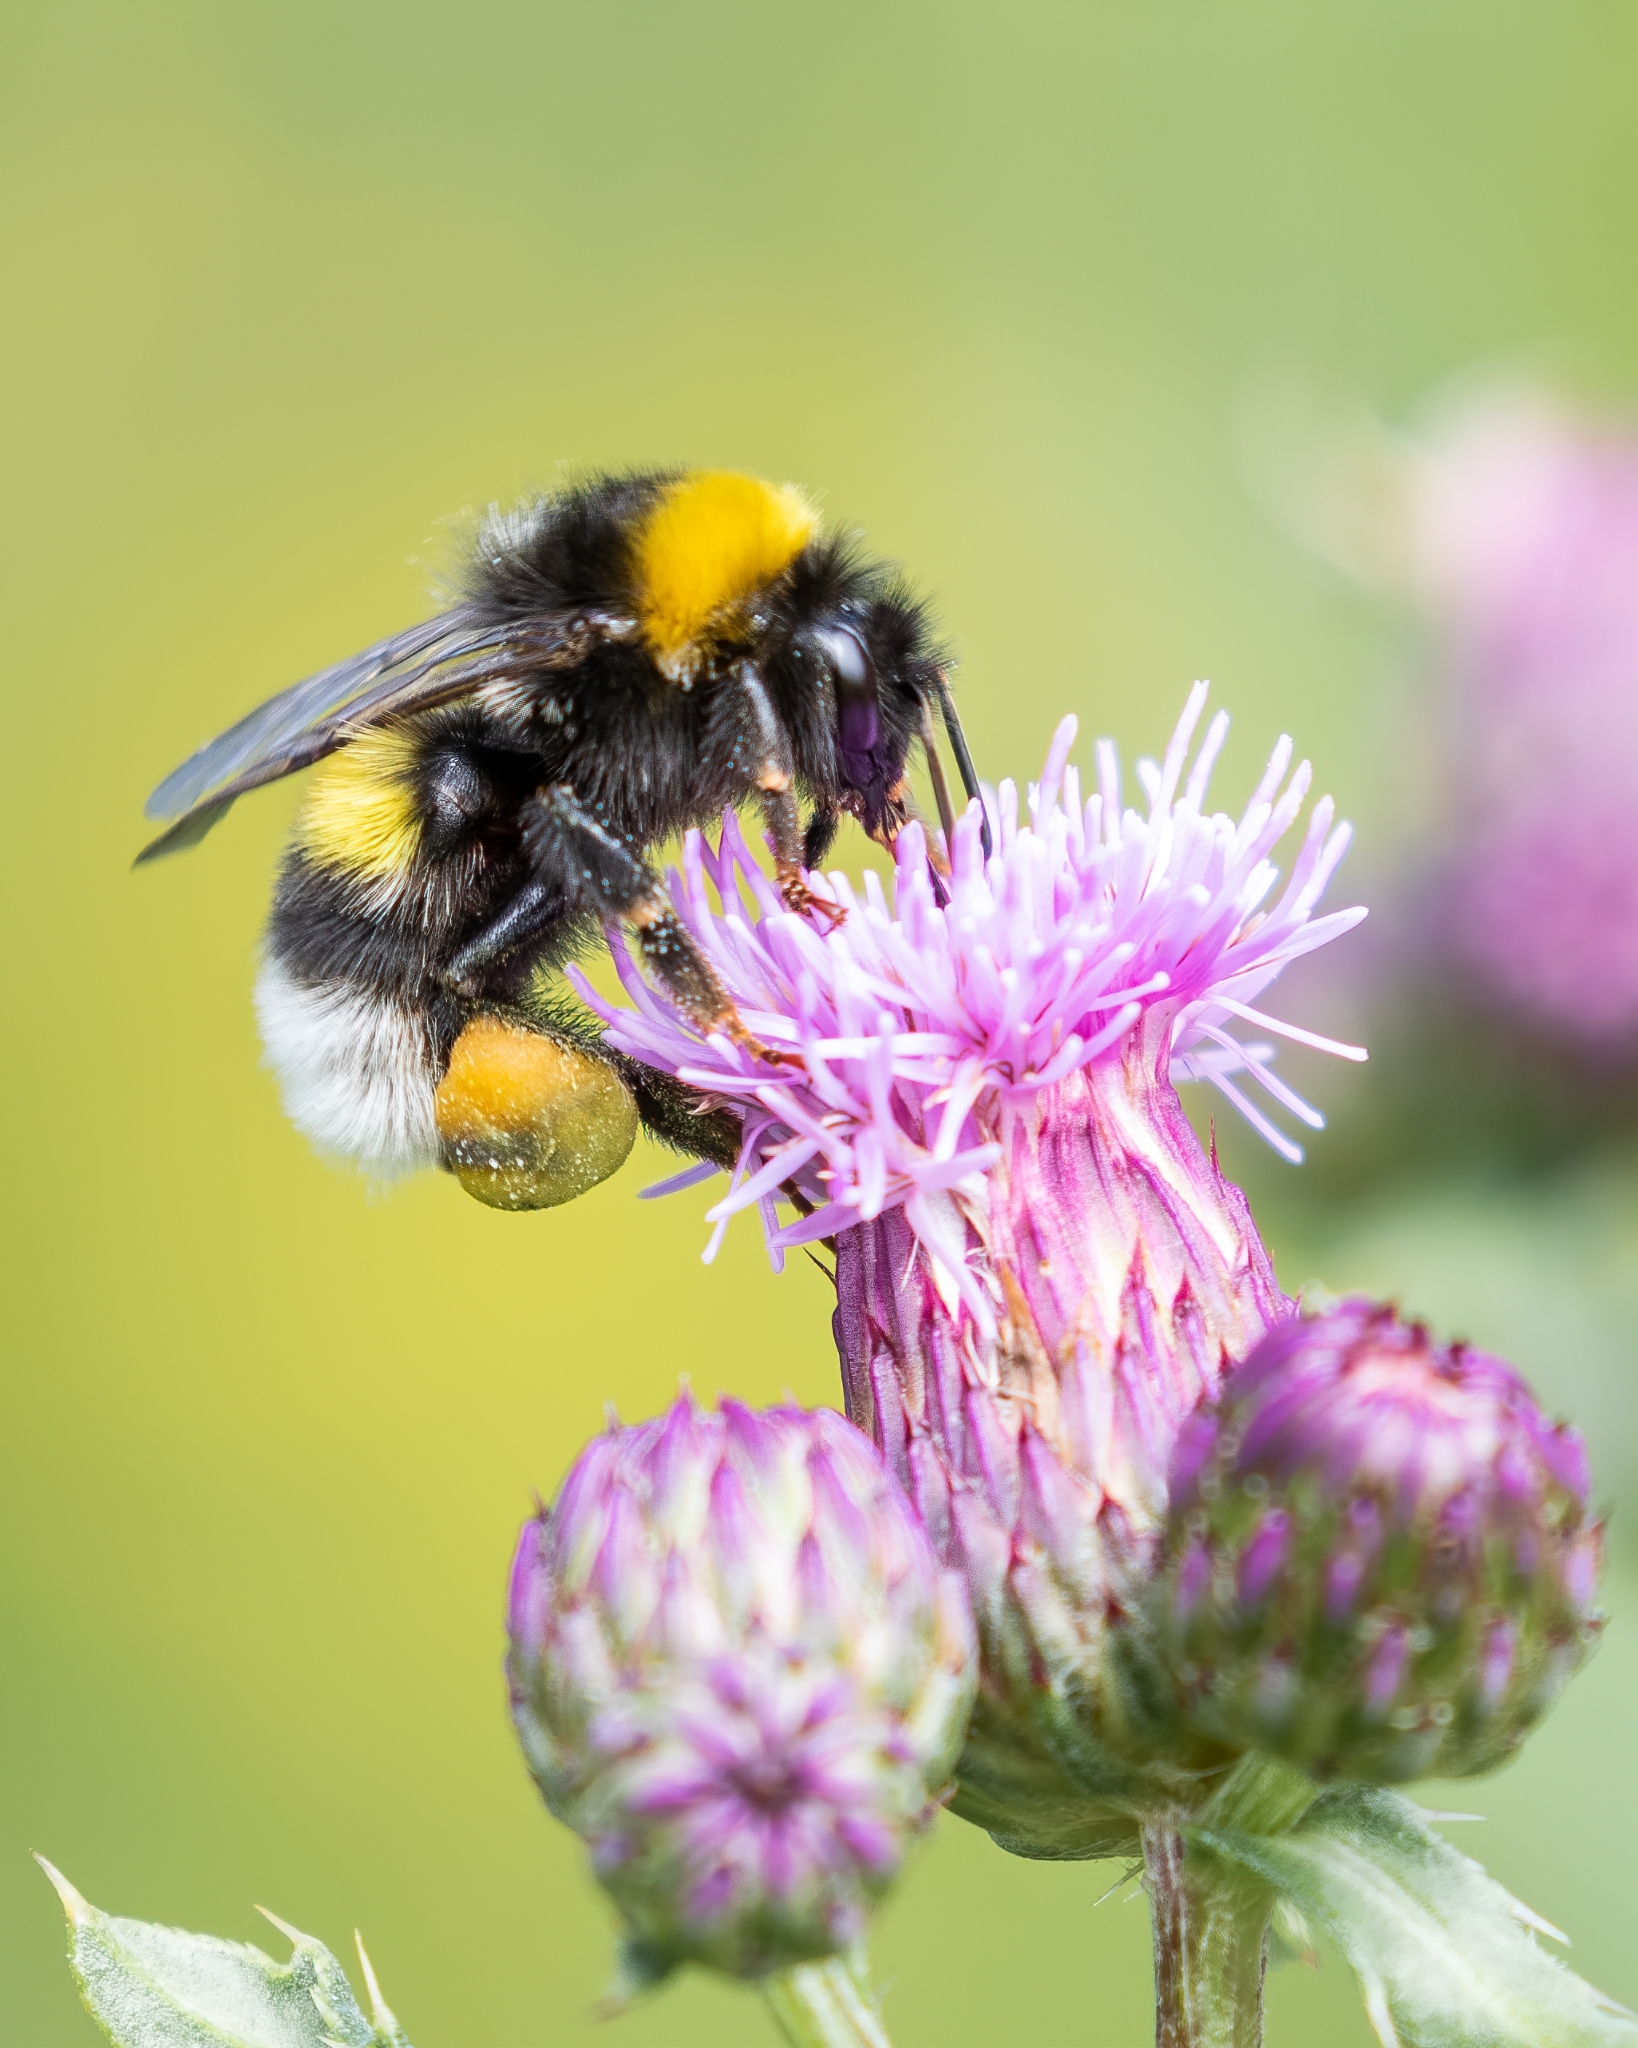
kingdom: Animalia
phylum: Arthropoda
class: Insecta
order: Hymenoptera
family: Apidae
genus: Bombus
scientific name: Bombus lucorum
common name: White-tailed bumblebee
